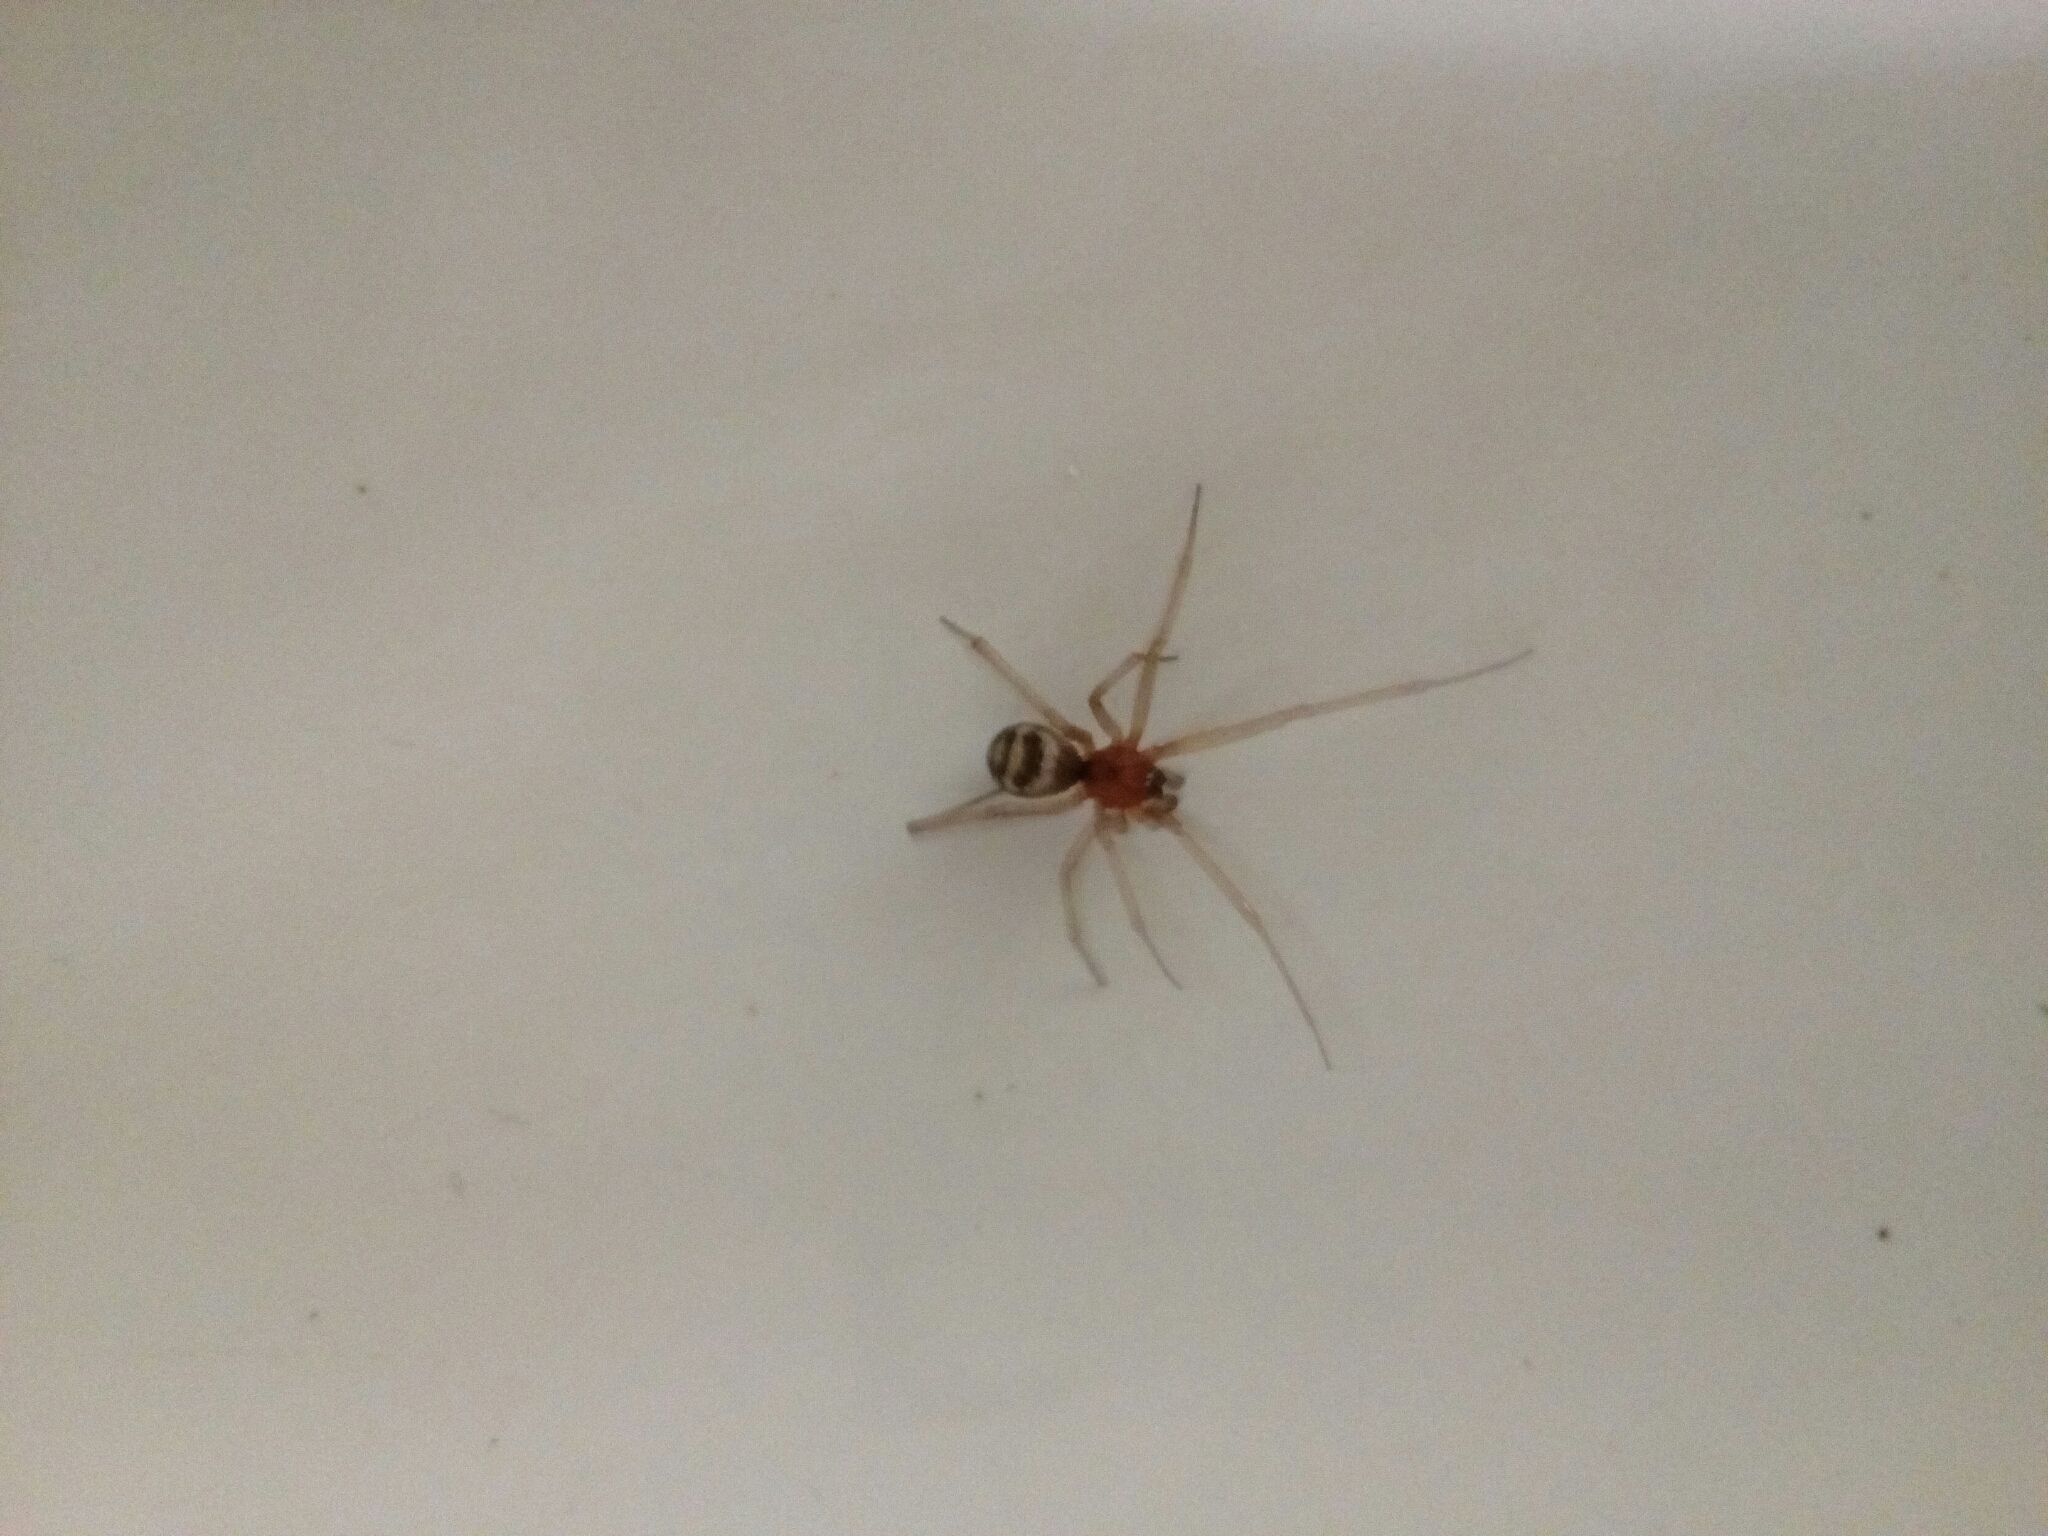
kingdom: Animalia
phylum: Arthropoda
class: Arachnida
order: Araneae
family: Theridiidae
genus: Steatoda
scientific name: Steatoda grossa
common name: False black widow
